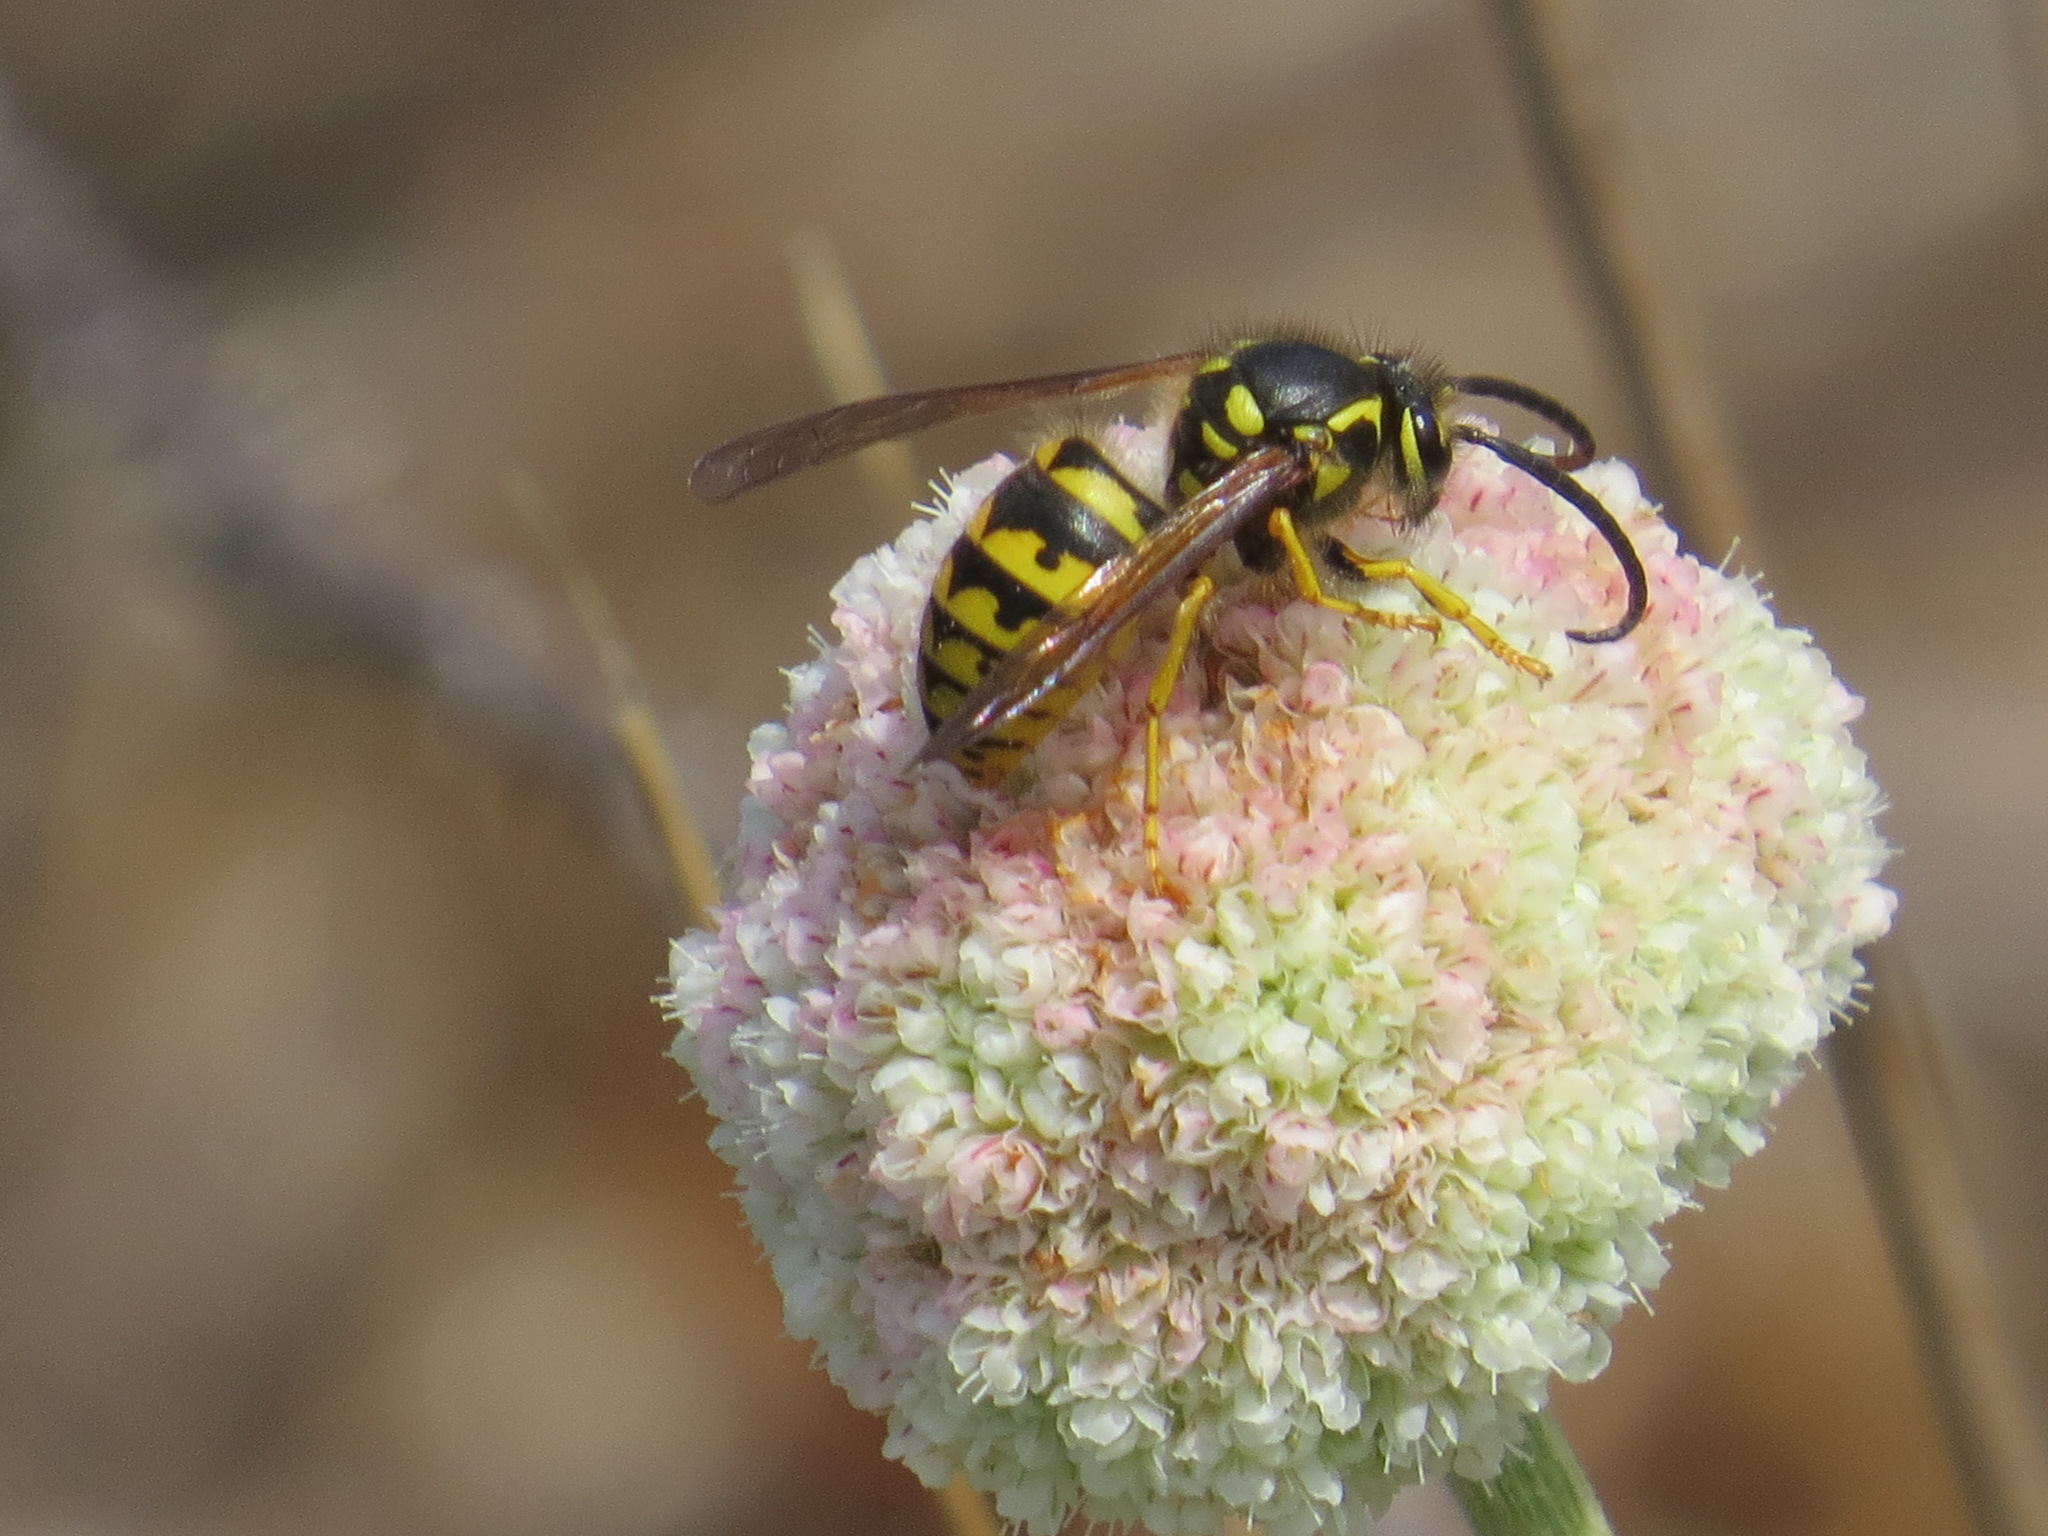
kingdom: Animalia
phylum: Arthropoda
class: Insecta
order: Hymenoptera
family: Vespidae
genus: Dolichovespula
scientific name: Dolichovespula arenaria
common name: Aerial yellowjacket
